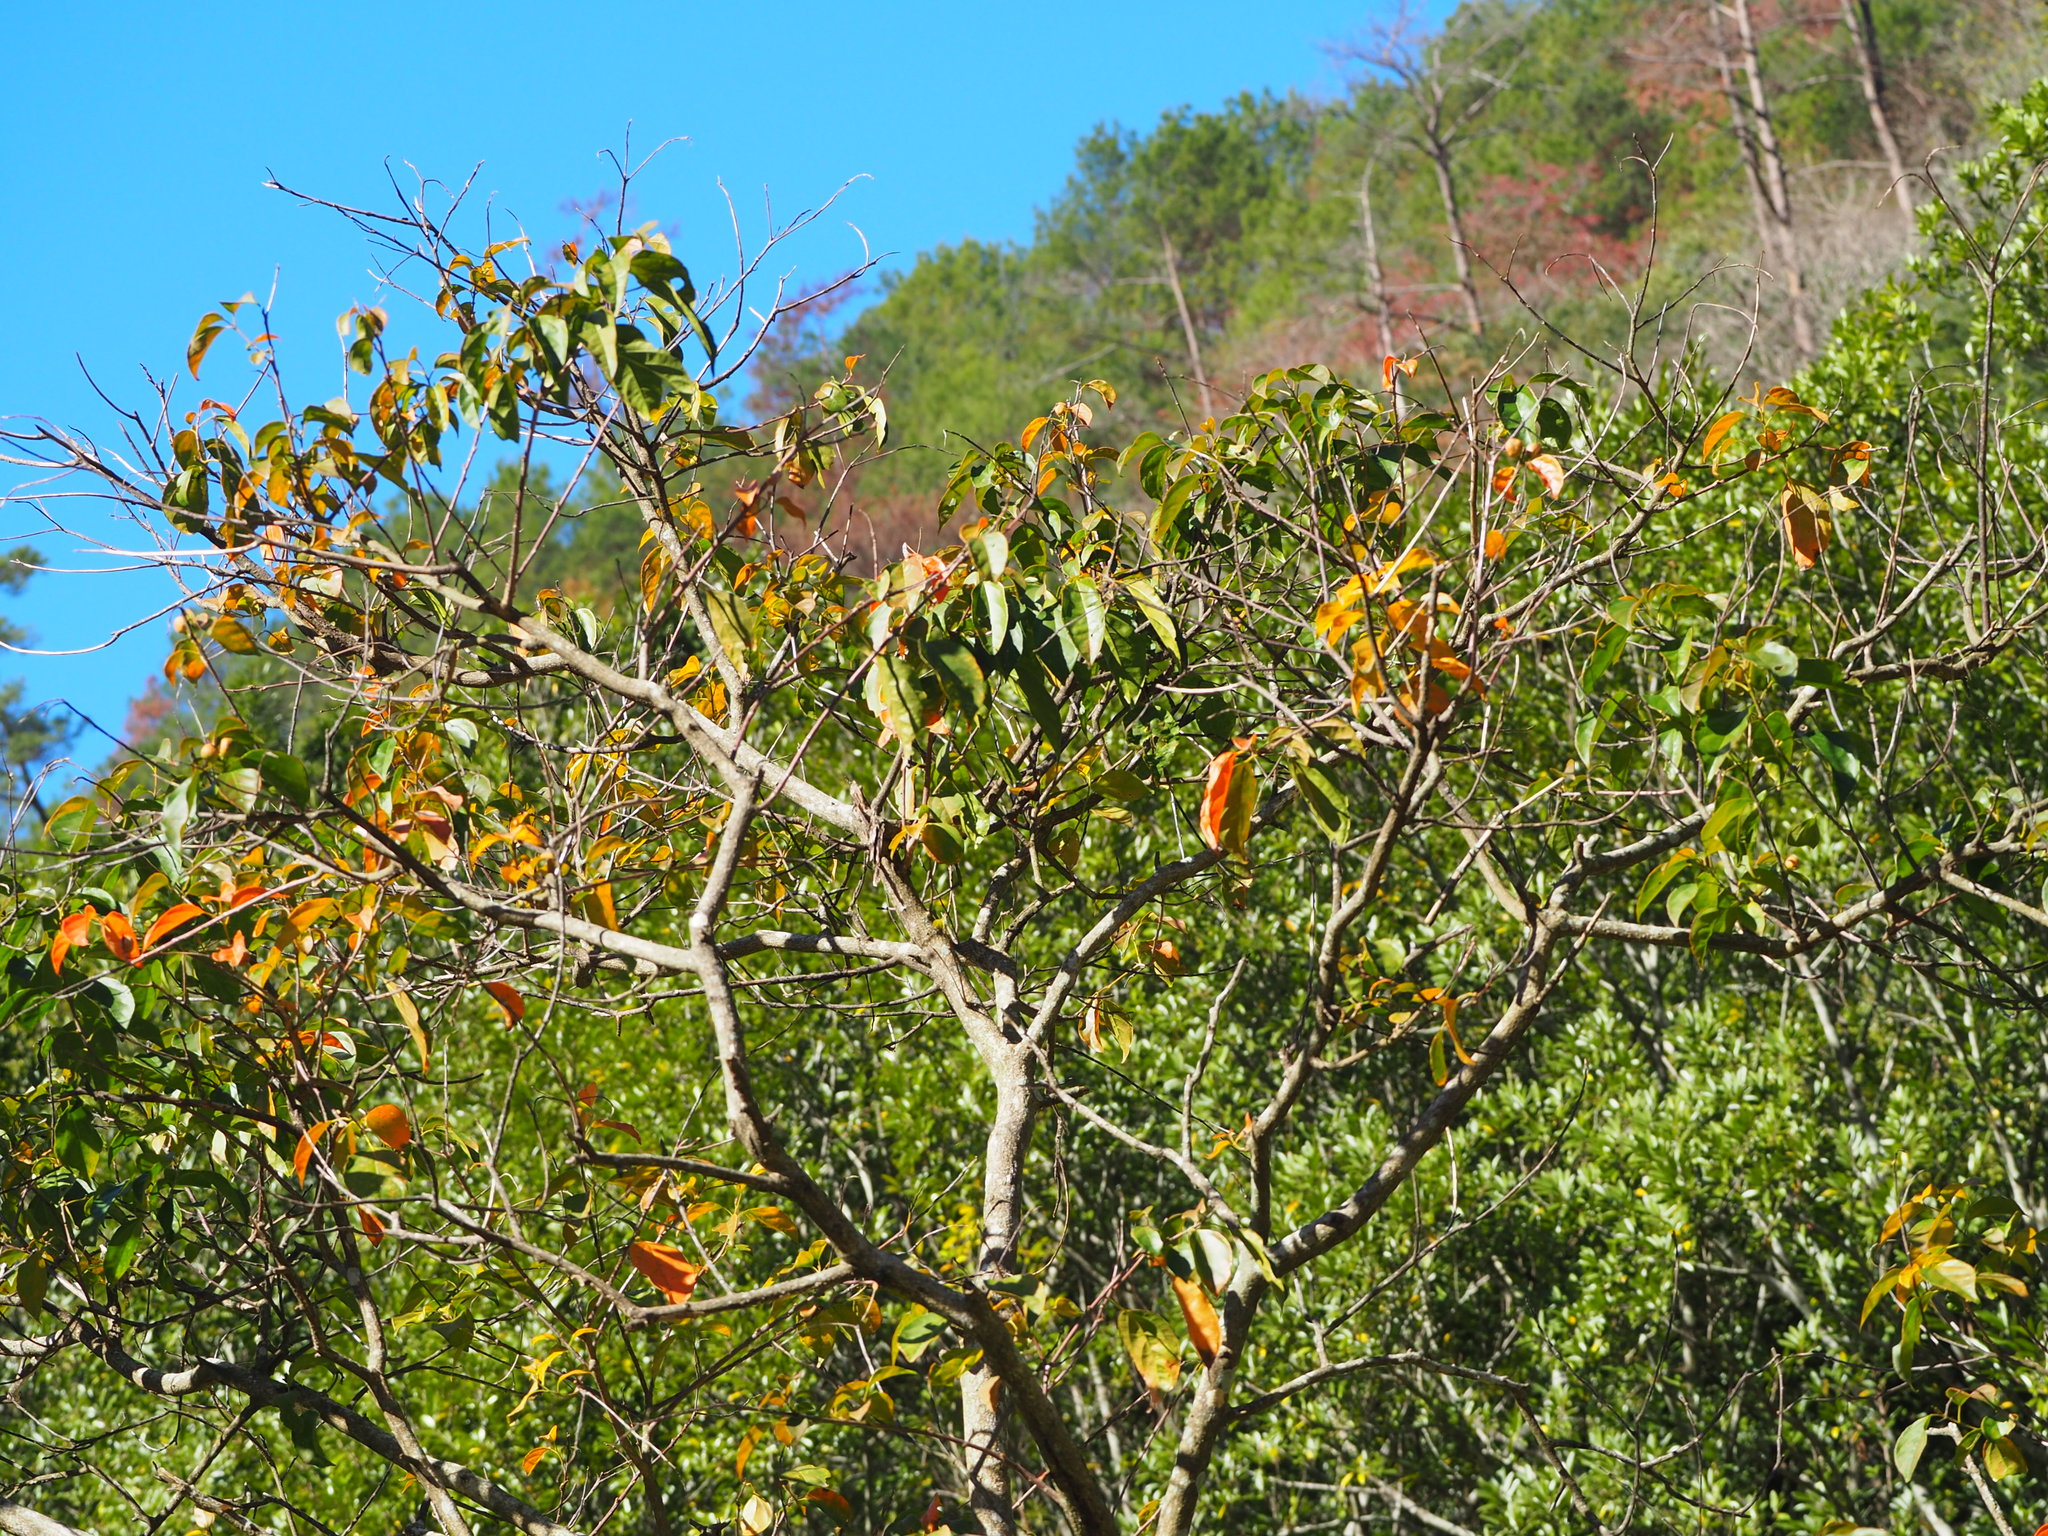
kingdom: Plantae
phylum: Tracheophyta
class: Magnoliopsida
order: Malpighiales
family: Euphorbiaceae
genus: Croton
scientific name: Croton tiglium
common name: Purging croton
